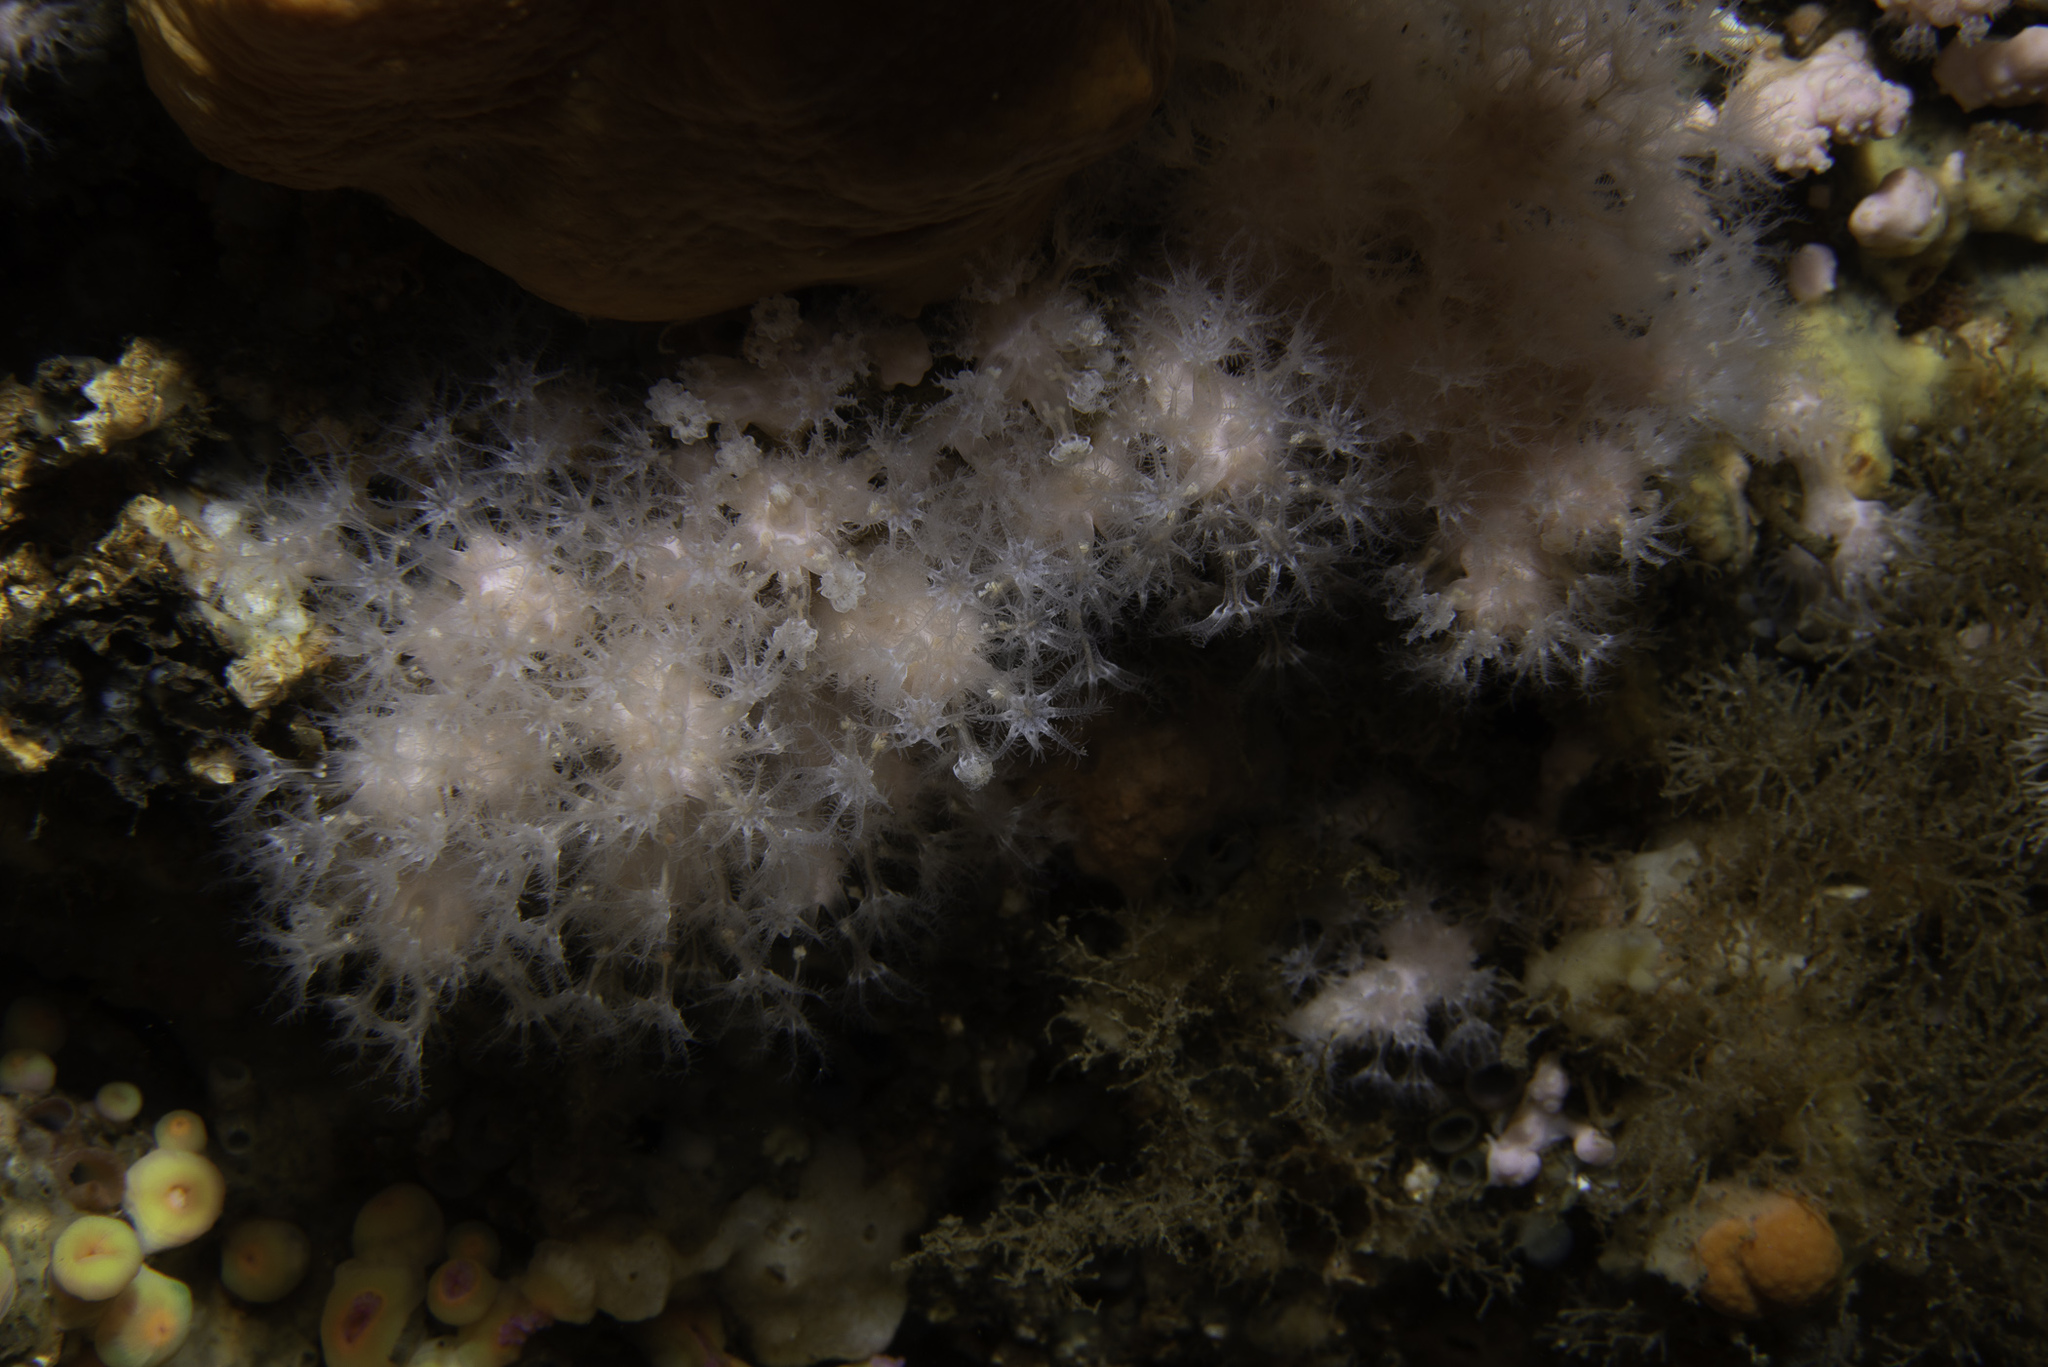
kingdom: Animalia
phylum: Cnidaria
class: Anthozoa
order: Malacalcyonacea
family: Alcyoniidae
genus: Alcyonium
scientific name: Alcyonium hibernicum
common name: Pink sea fingers
